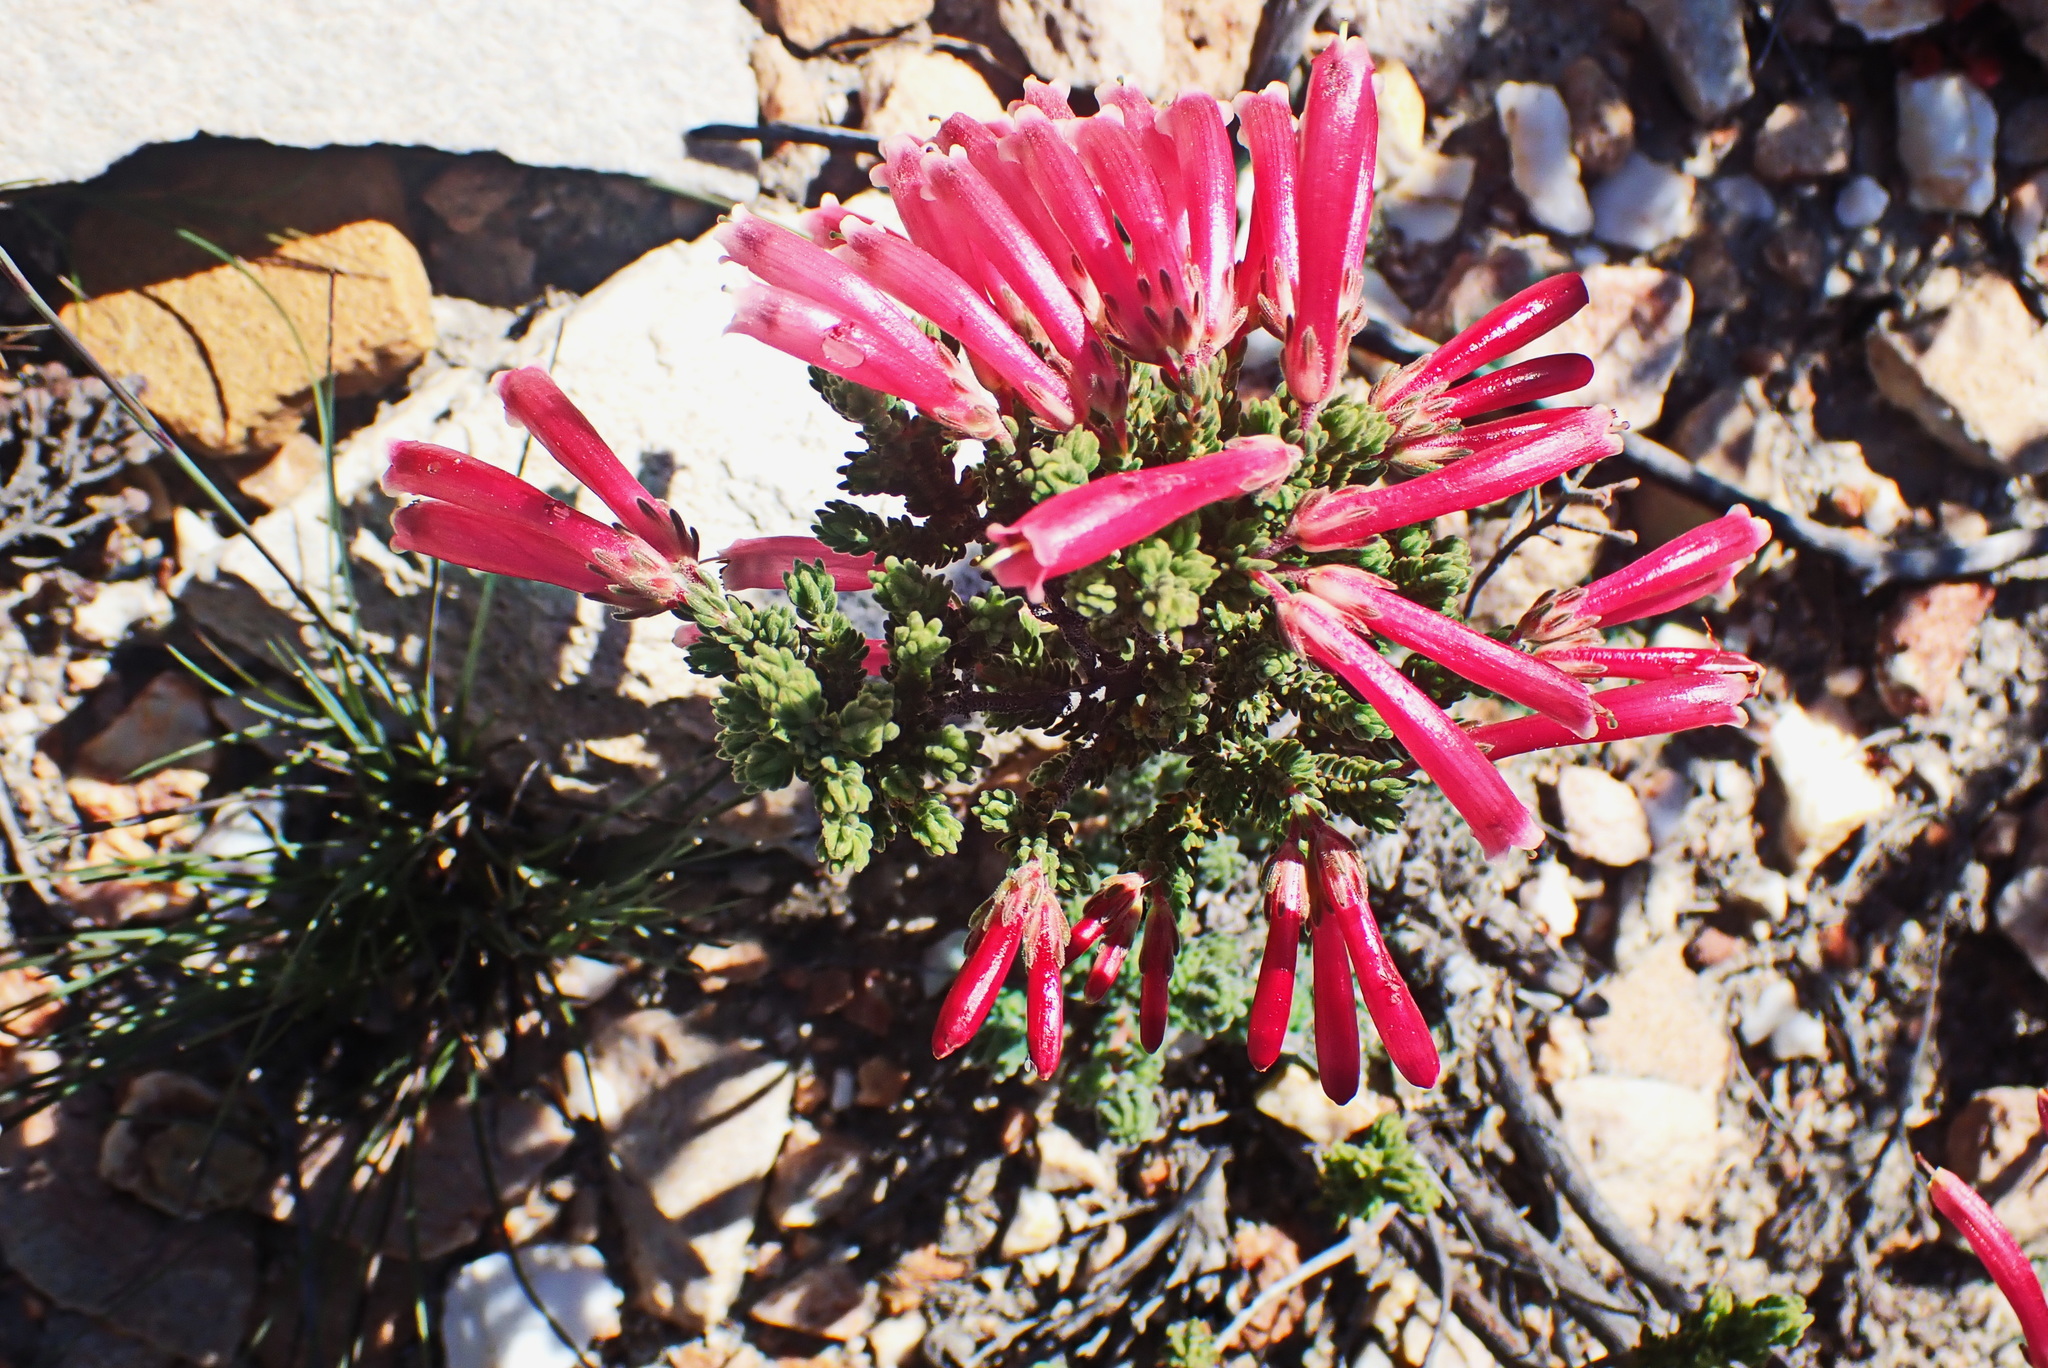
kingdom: Plantae
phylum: Tracheophyta
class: Magnoliopsida
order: Ericales
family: Ericaceae
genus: Erica
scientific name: Erica discolor
